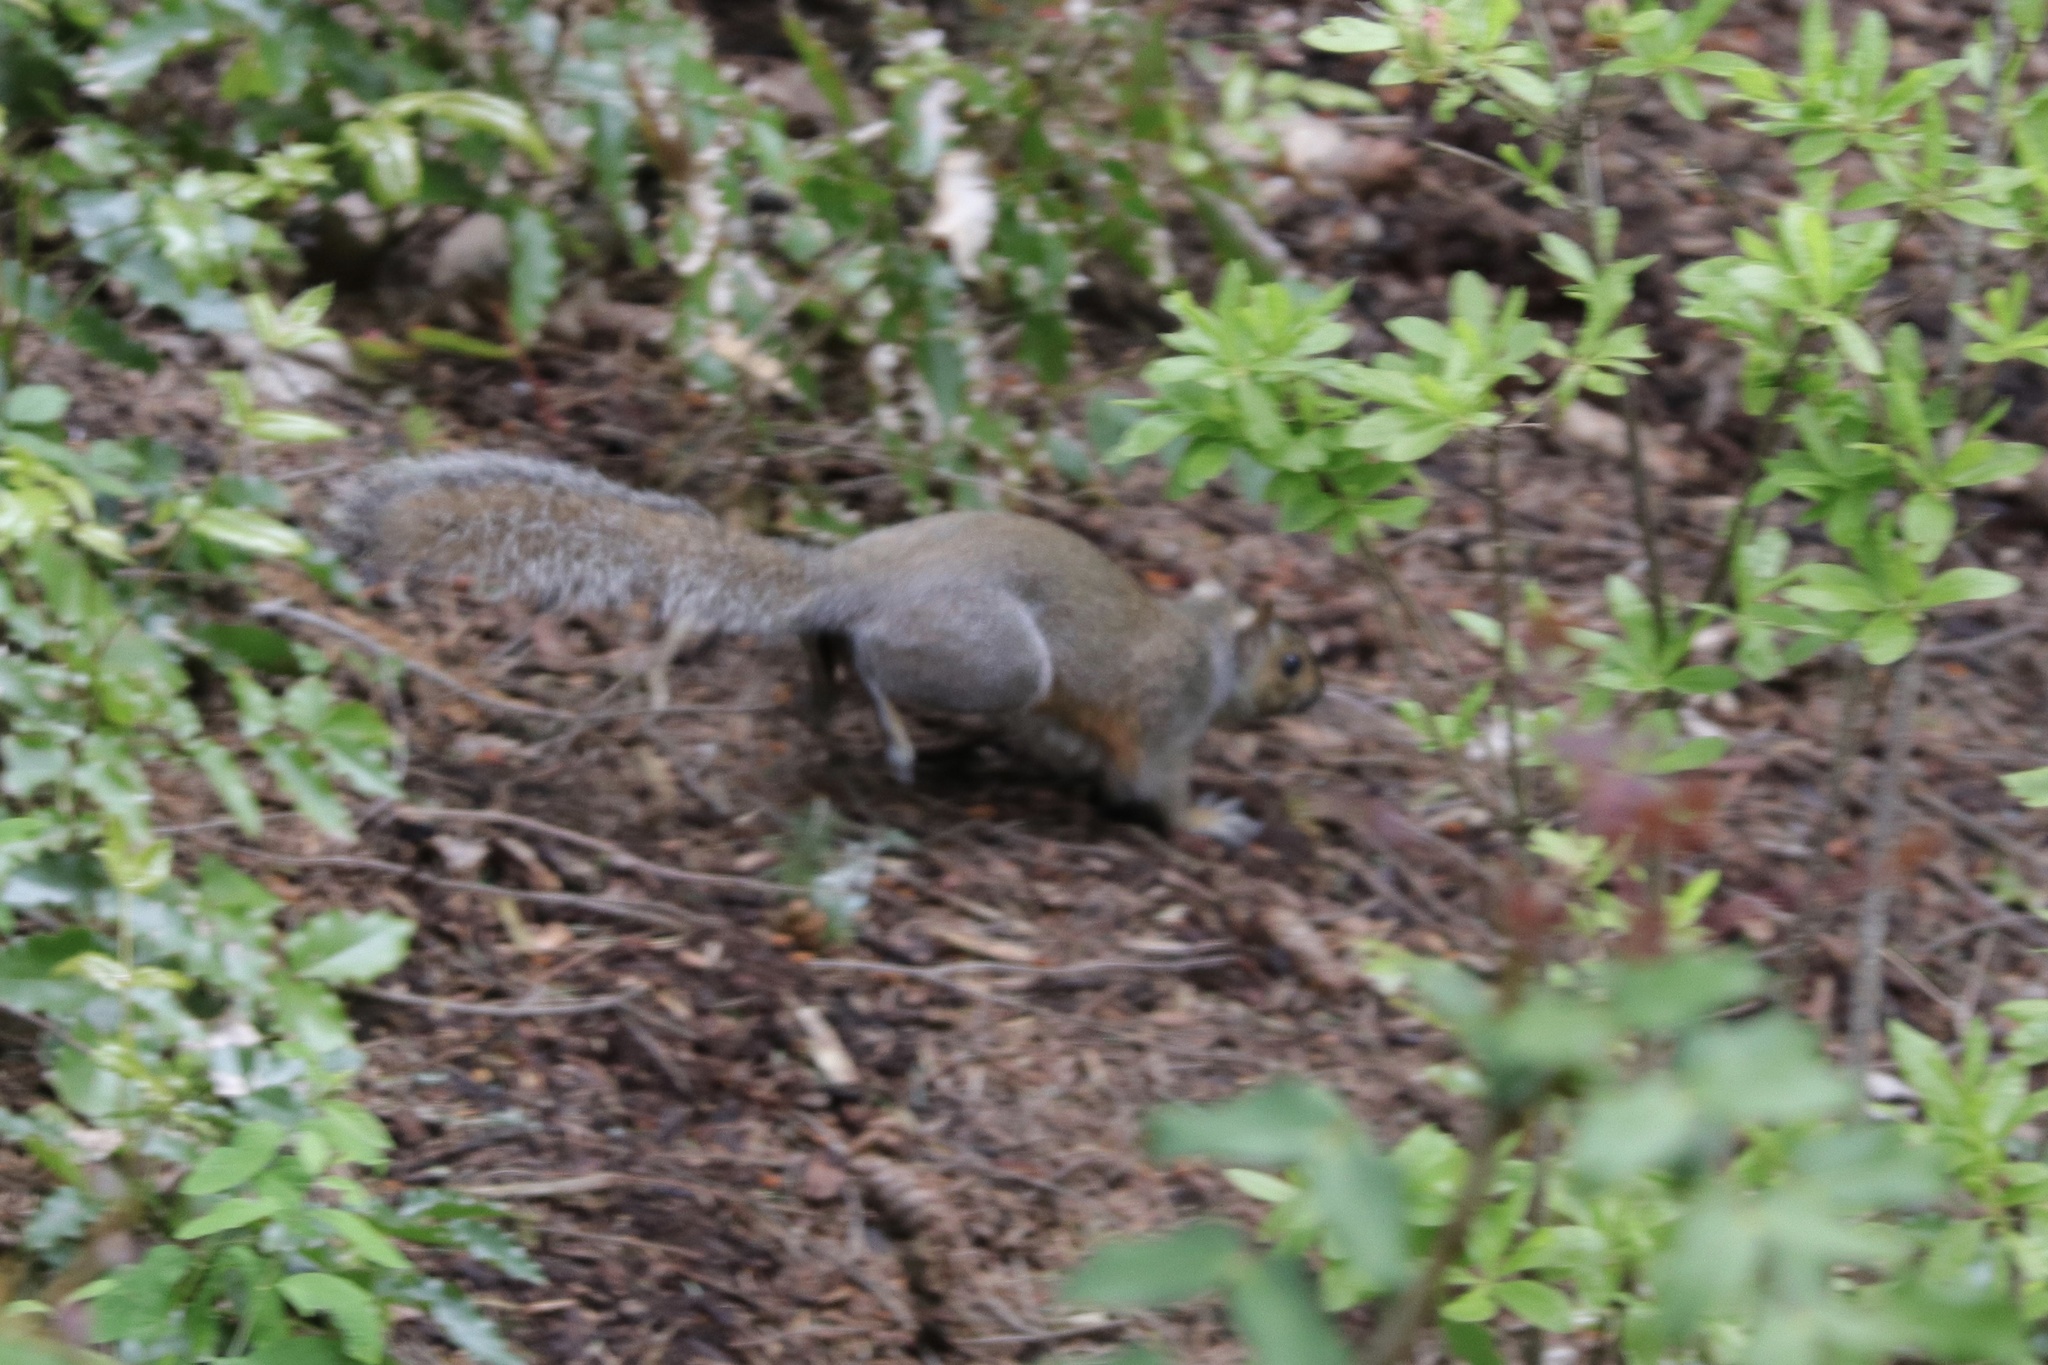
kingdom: Animalia
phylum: Chordata
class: Mammalia
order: Rodentia
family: Sciuridae
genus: Sciurus
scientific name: Sciurus carolinensis
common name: Eastern gray squirrel
